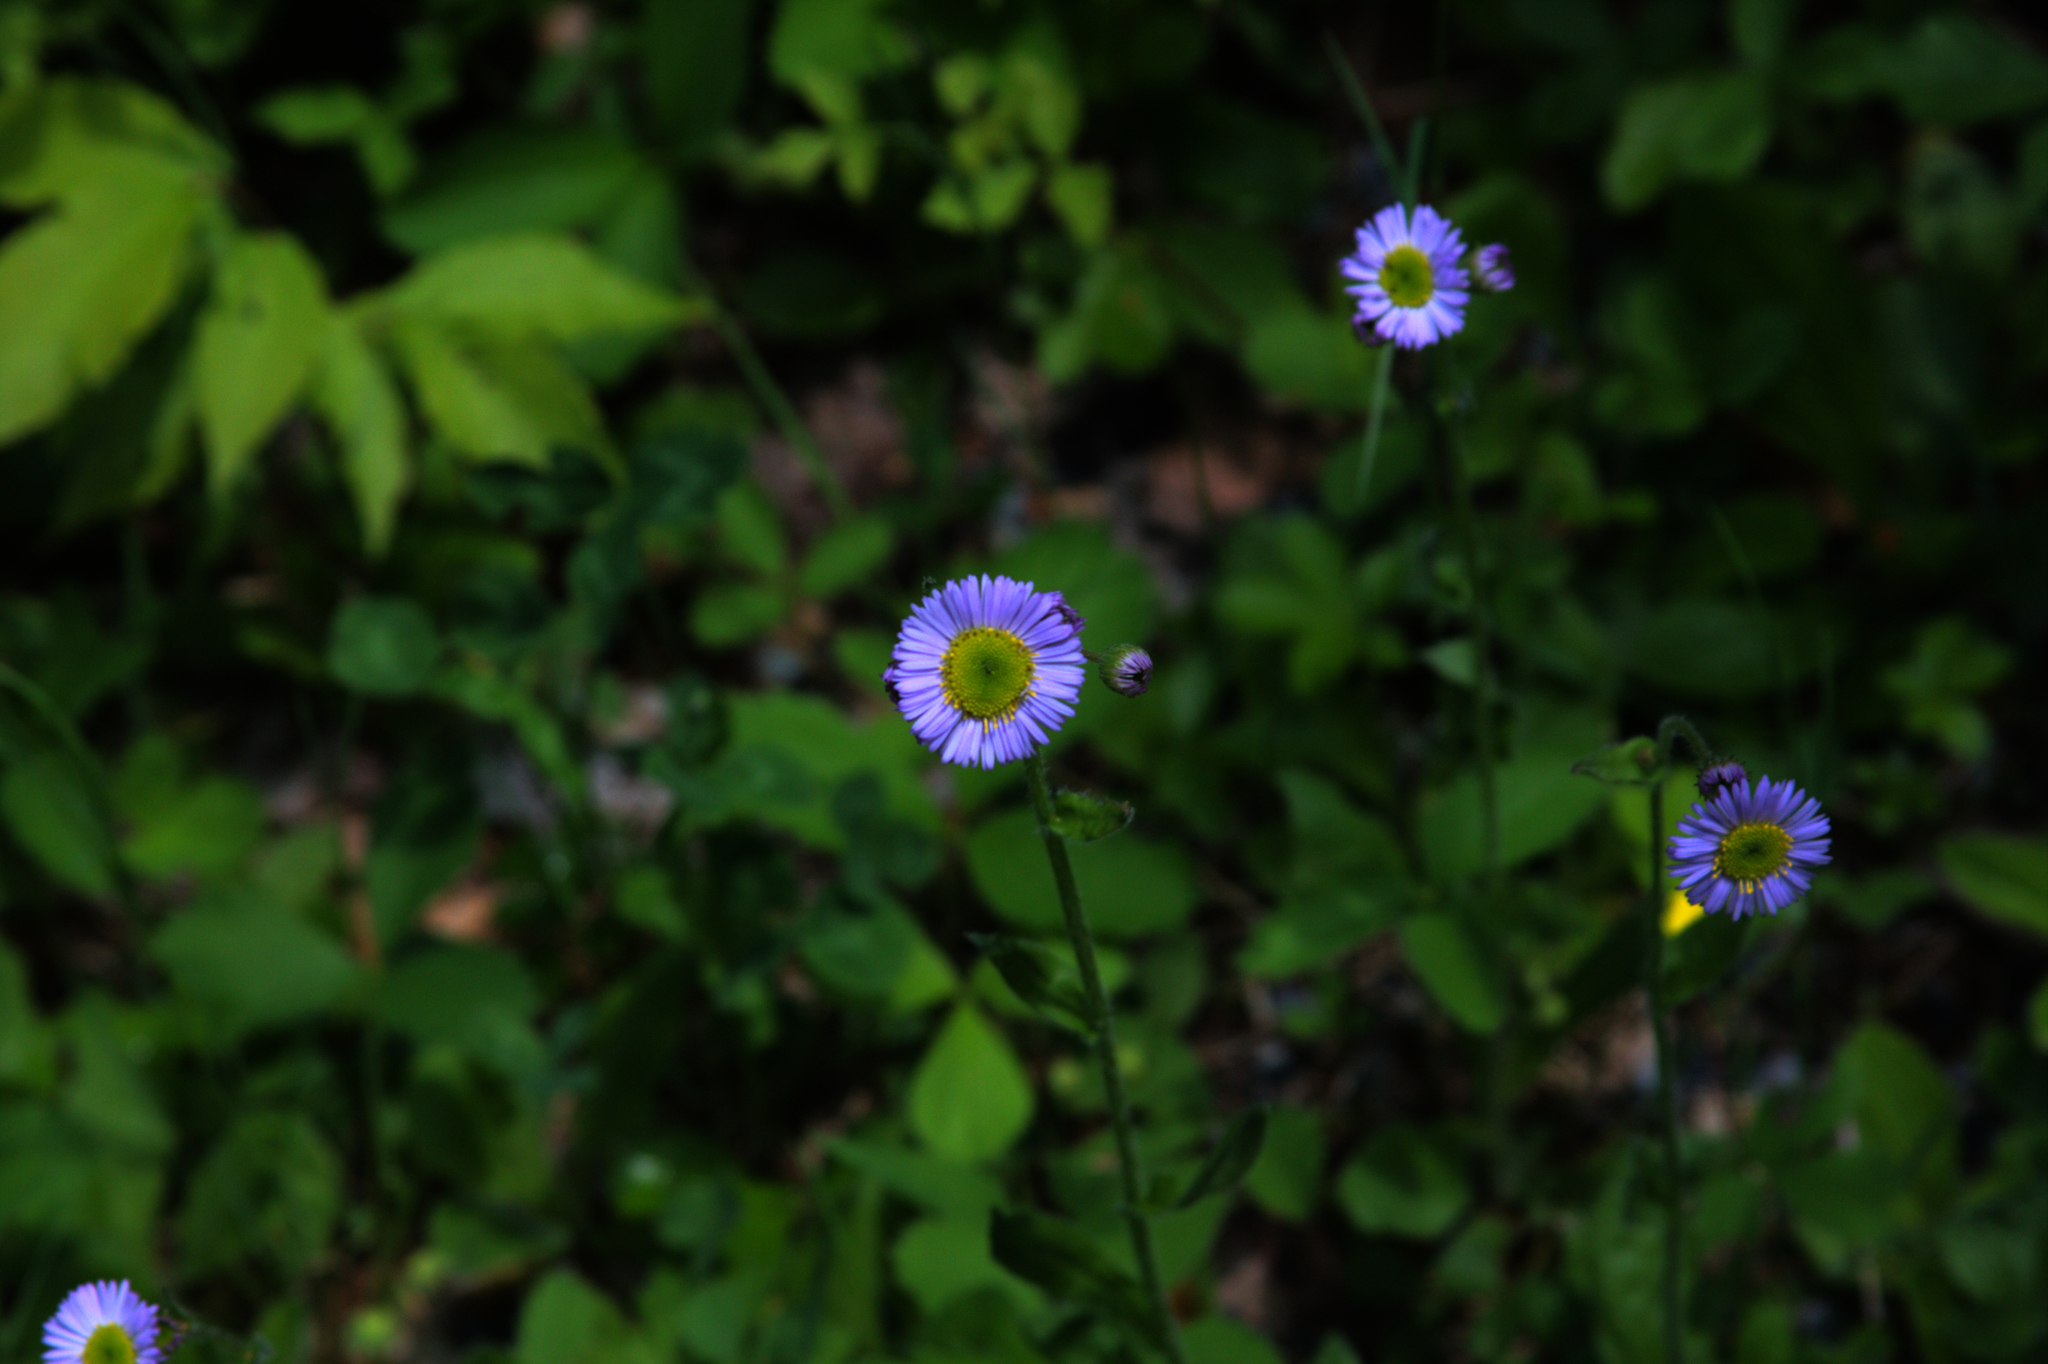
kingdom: Plantae
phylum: Tracheophyta
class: Magnoliopsida
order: Asterales
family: Asteraceae
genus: Erigeron
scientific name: Erigeron pulchellus
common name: Hairy fleabane
